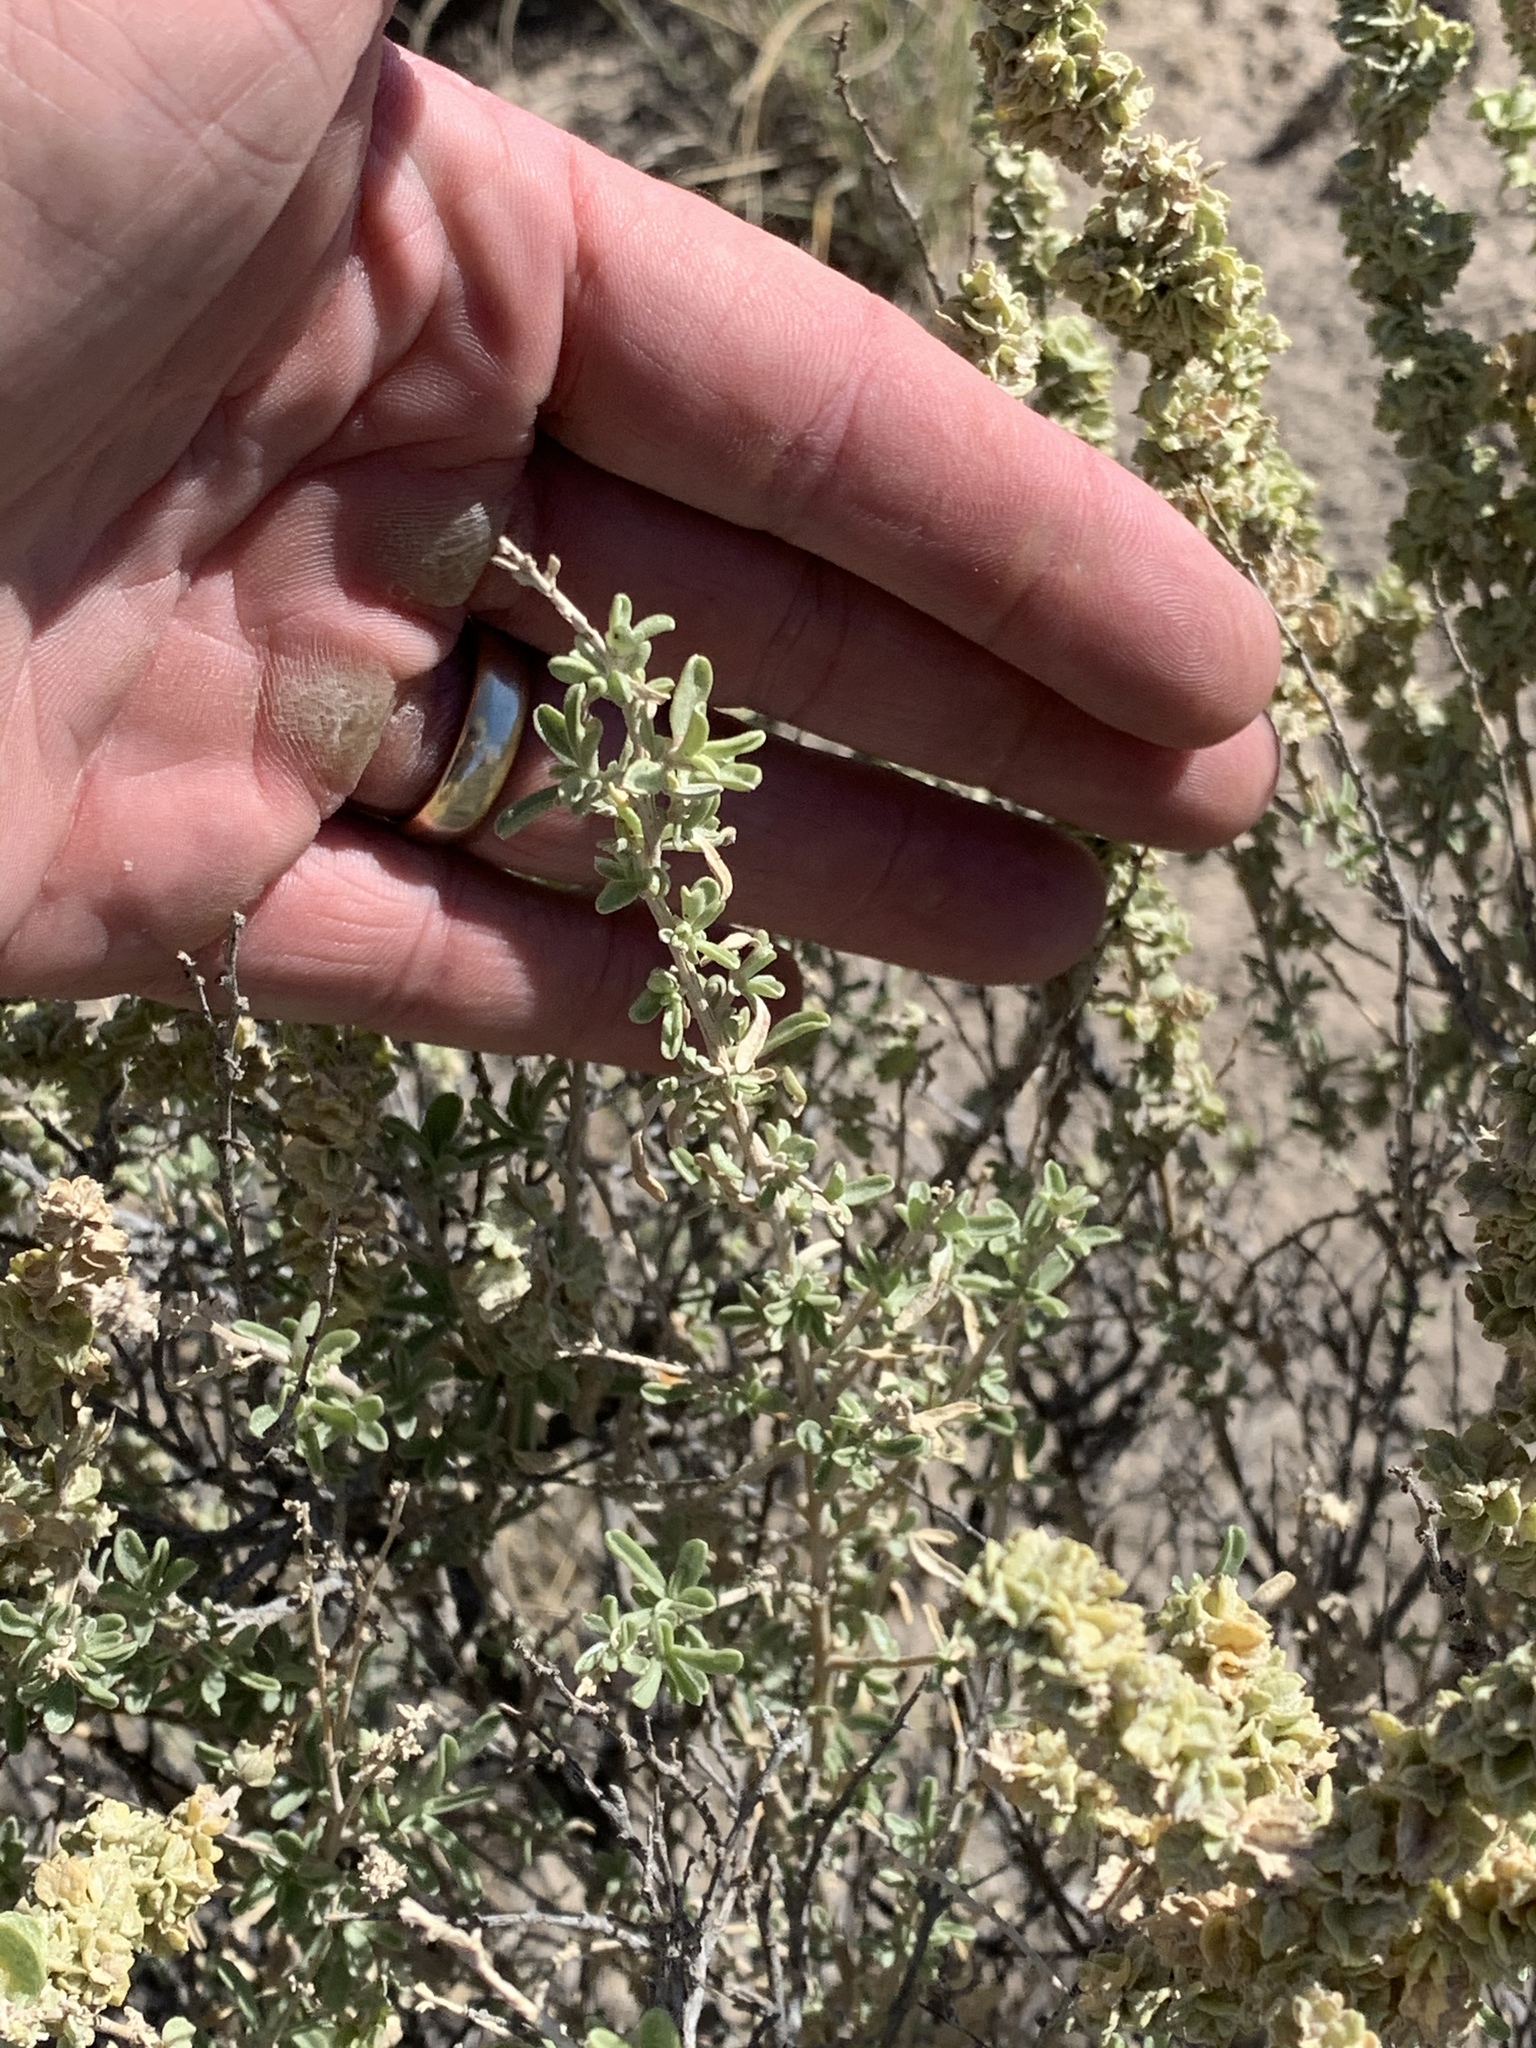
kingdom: Plantae
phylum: Tracheophyta
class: Magnoliopsida
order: Caryophyllales
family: Amaranthaceae
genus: Atriplex
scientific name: Atriplex canescens
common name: Four-wing saltbush
